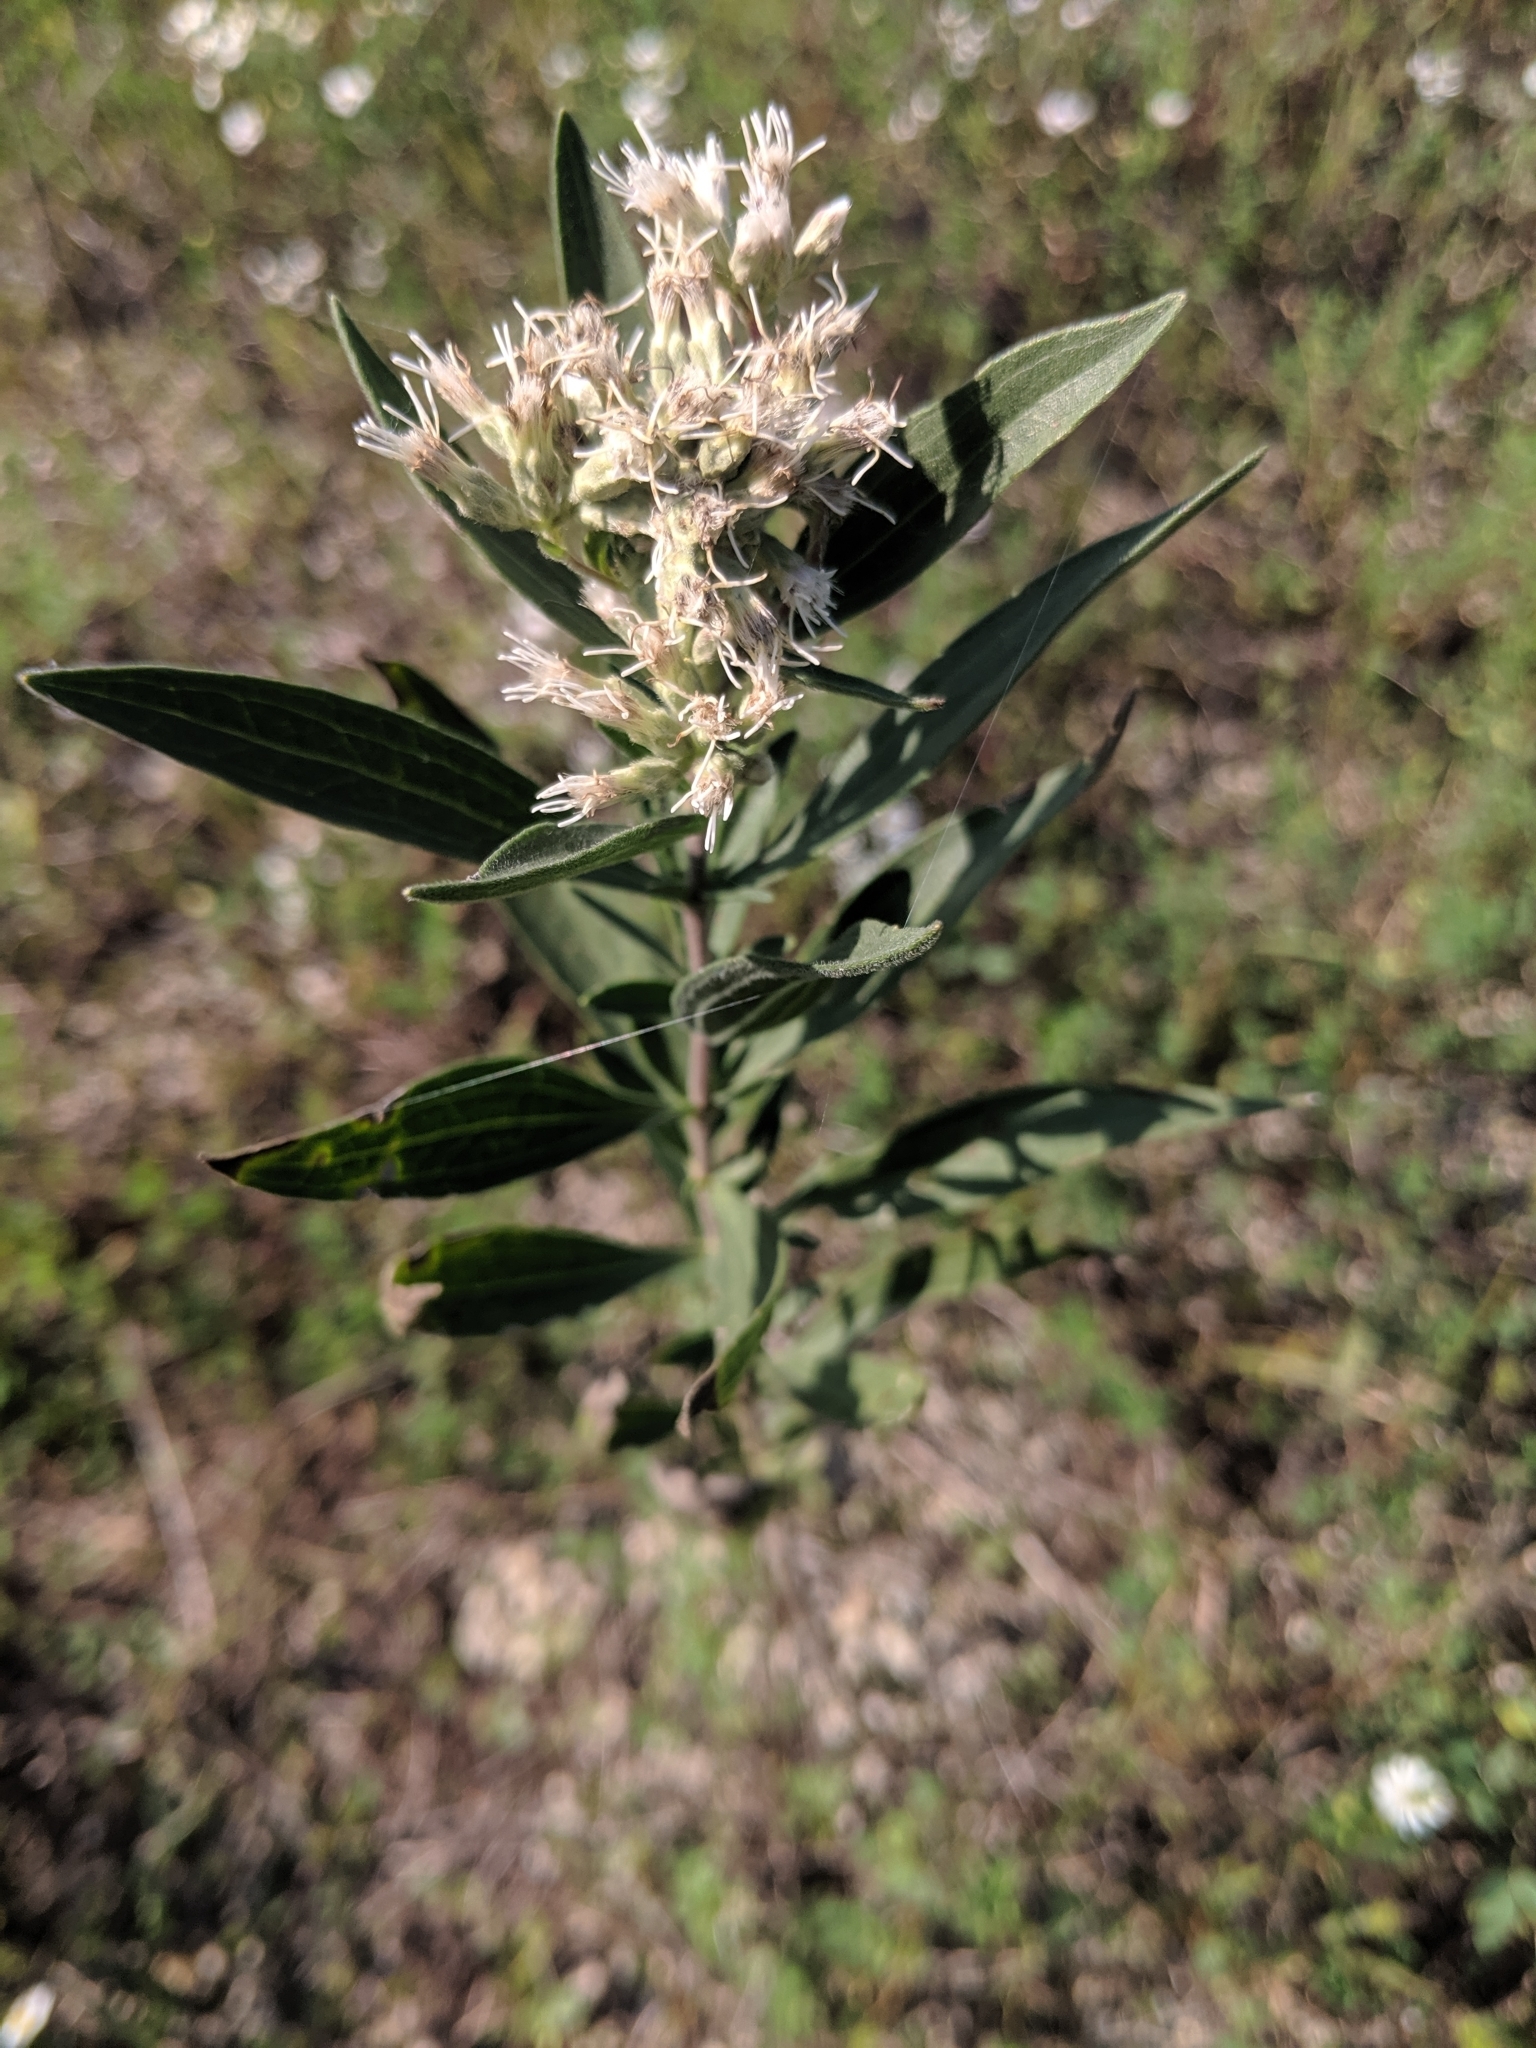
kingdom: Plantae
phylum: Tracheophyta
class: Magnoliopsida
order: Asterales
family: Asteraceae
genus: Eupatorium
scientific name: Eupatorium altissimum
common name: Tall thoroughwort
